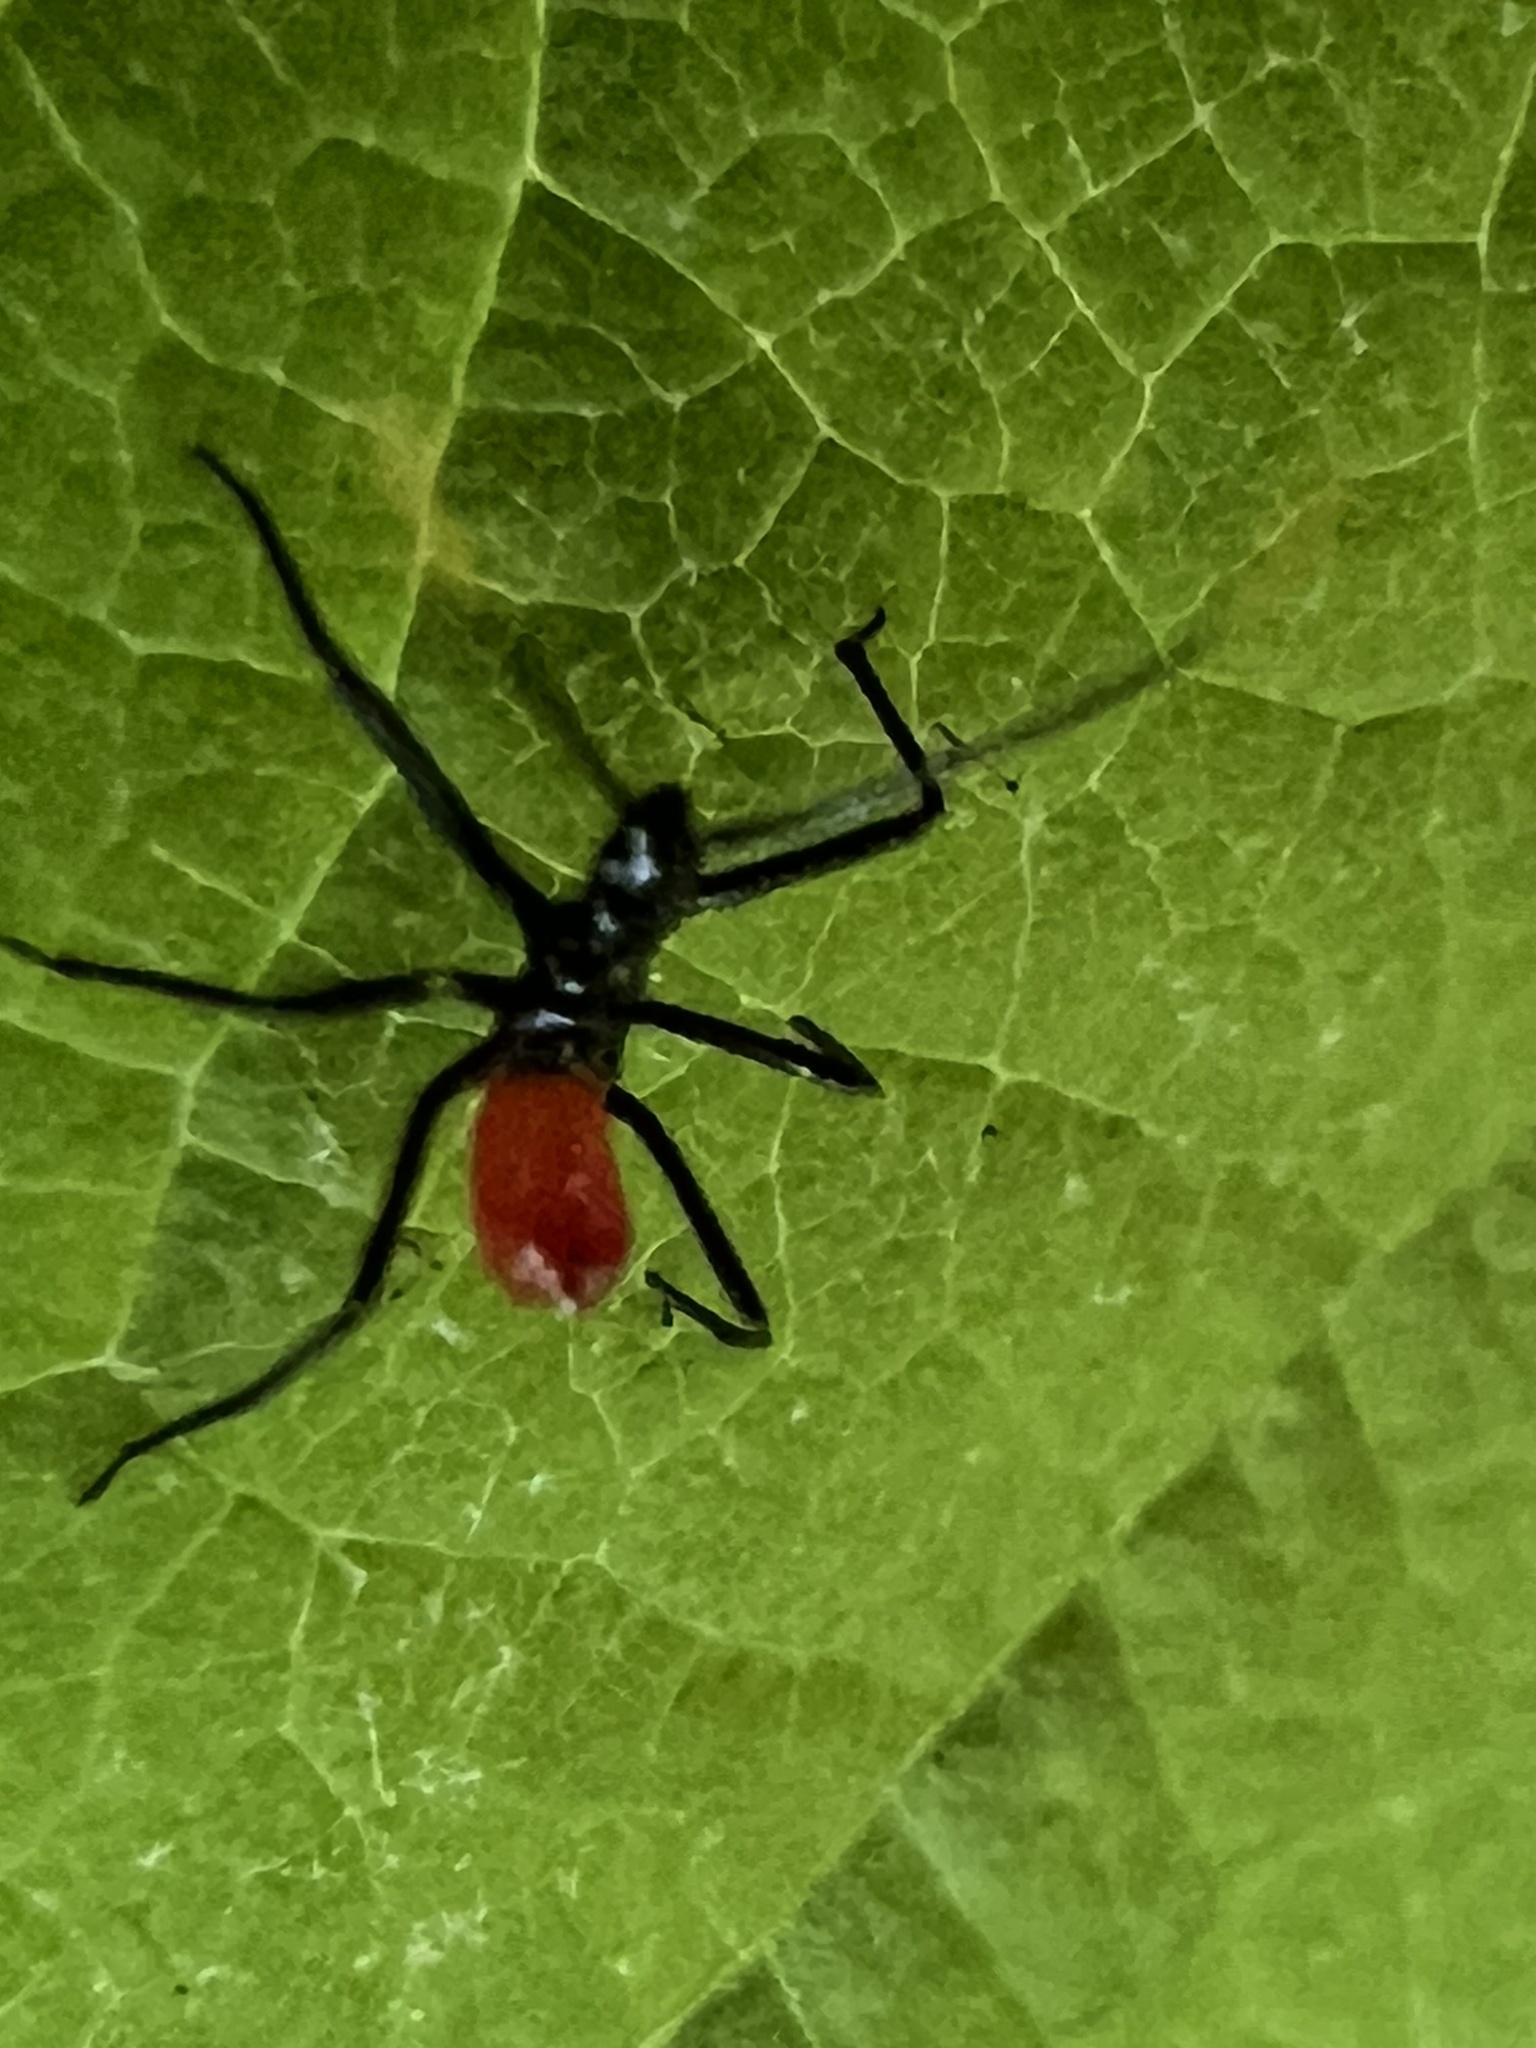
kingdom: Animalia
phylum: Arthropoda
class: Insecta
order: Hemiptera
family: Reduviidae
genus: Arilus
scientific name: Arilus cristatus
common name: North american wheel bug
